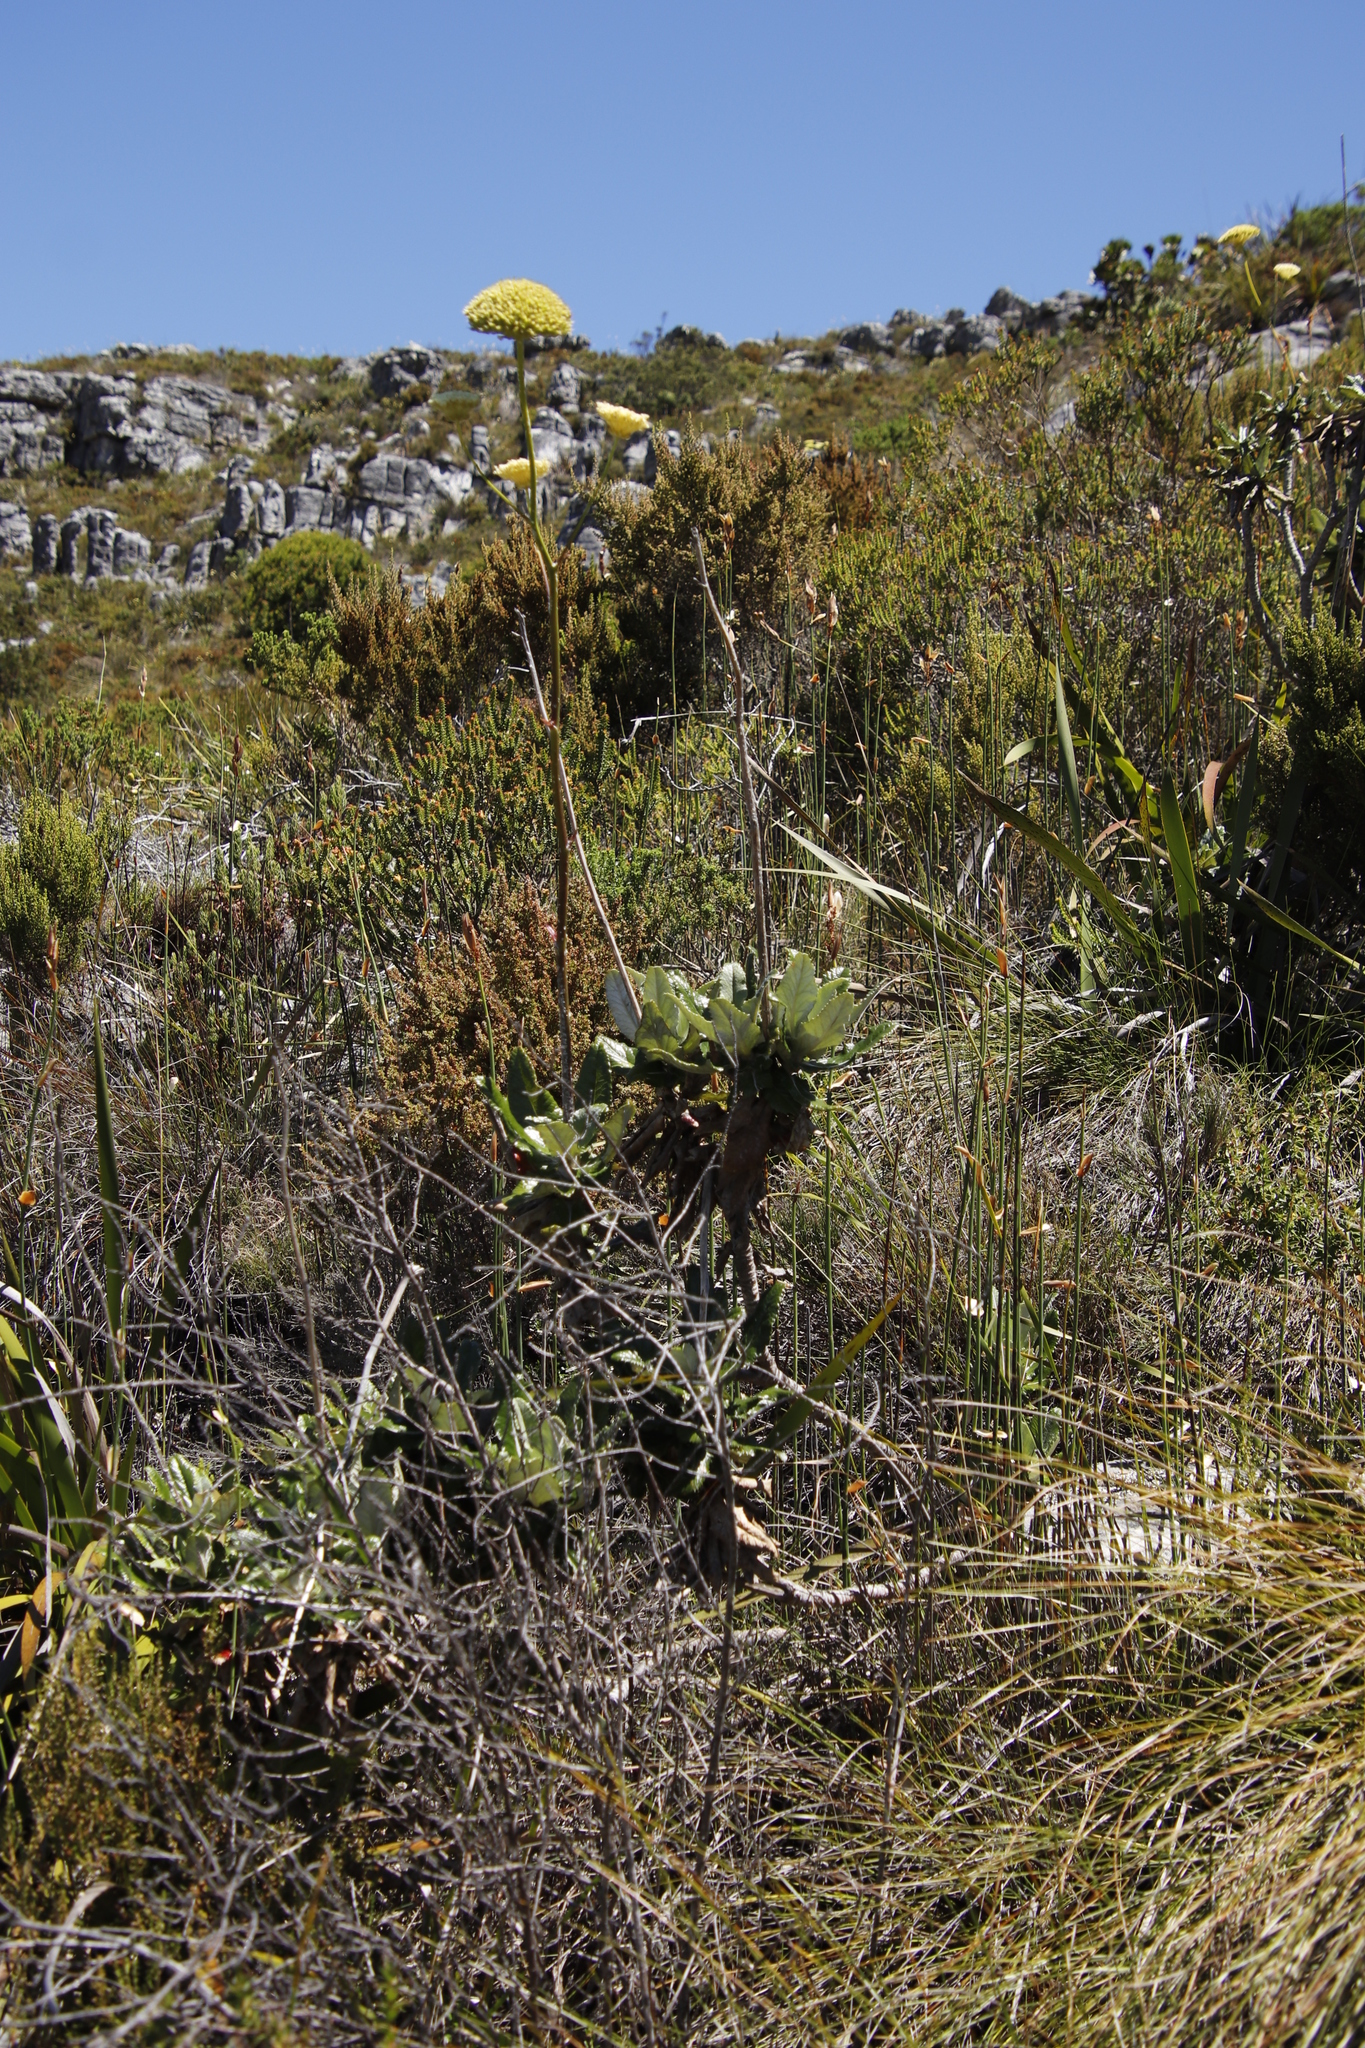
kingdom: Plantae
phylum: Tracheophyta
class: Magnoliopsida
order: Apiales
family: Apiaceae
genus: Hermas
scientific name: Hermas villosa
